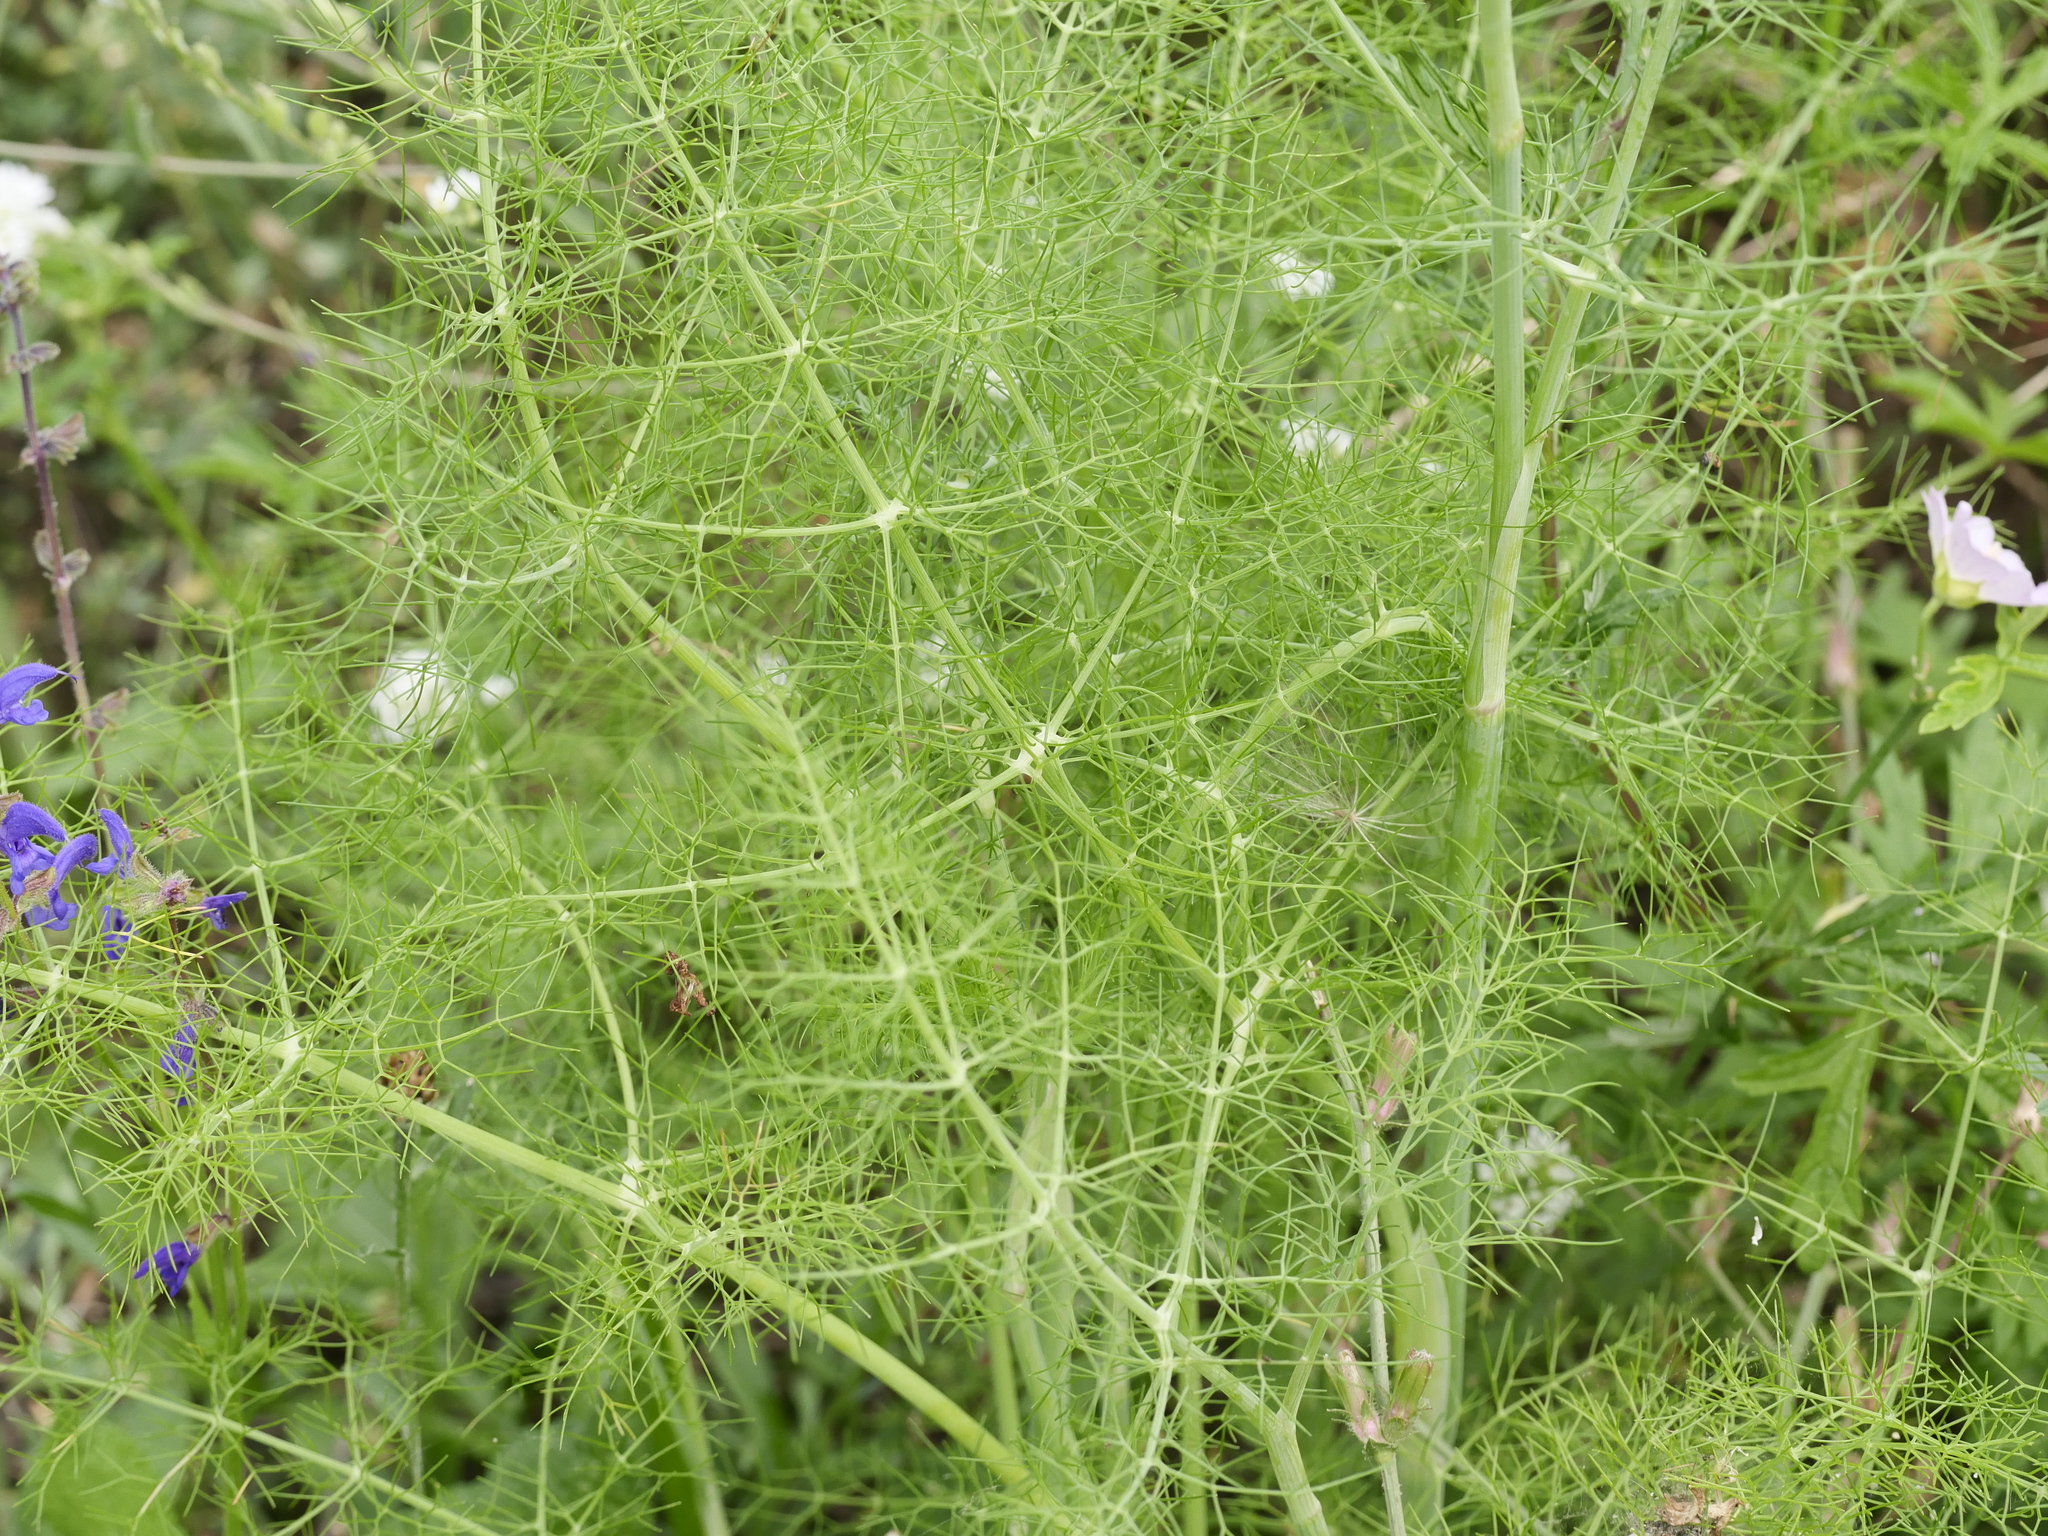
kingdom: Plantae
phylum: Tracheophyta
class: Magnoliopsida
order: Apiales
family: Apiaceae
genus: Foeniculum
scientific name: Foeniculum vulgare
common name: Fennel
